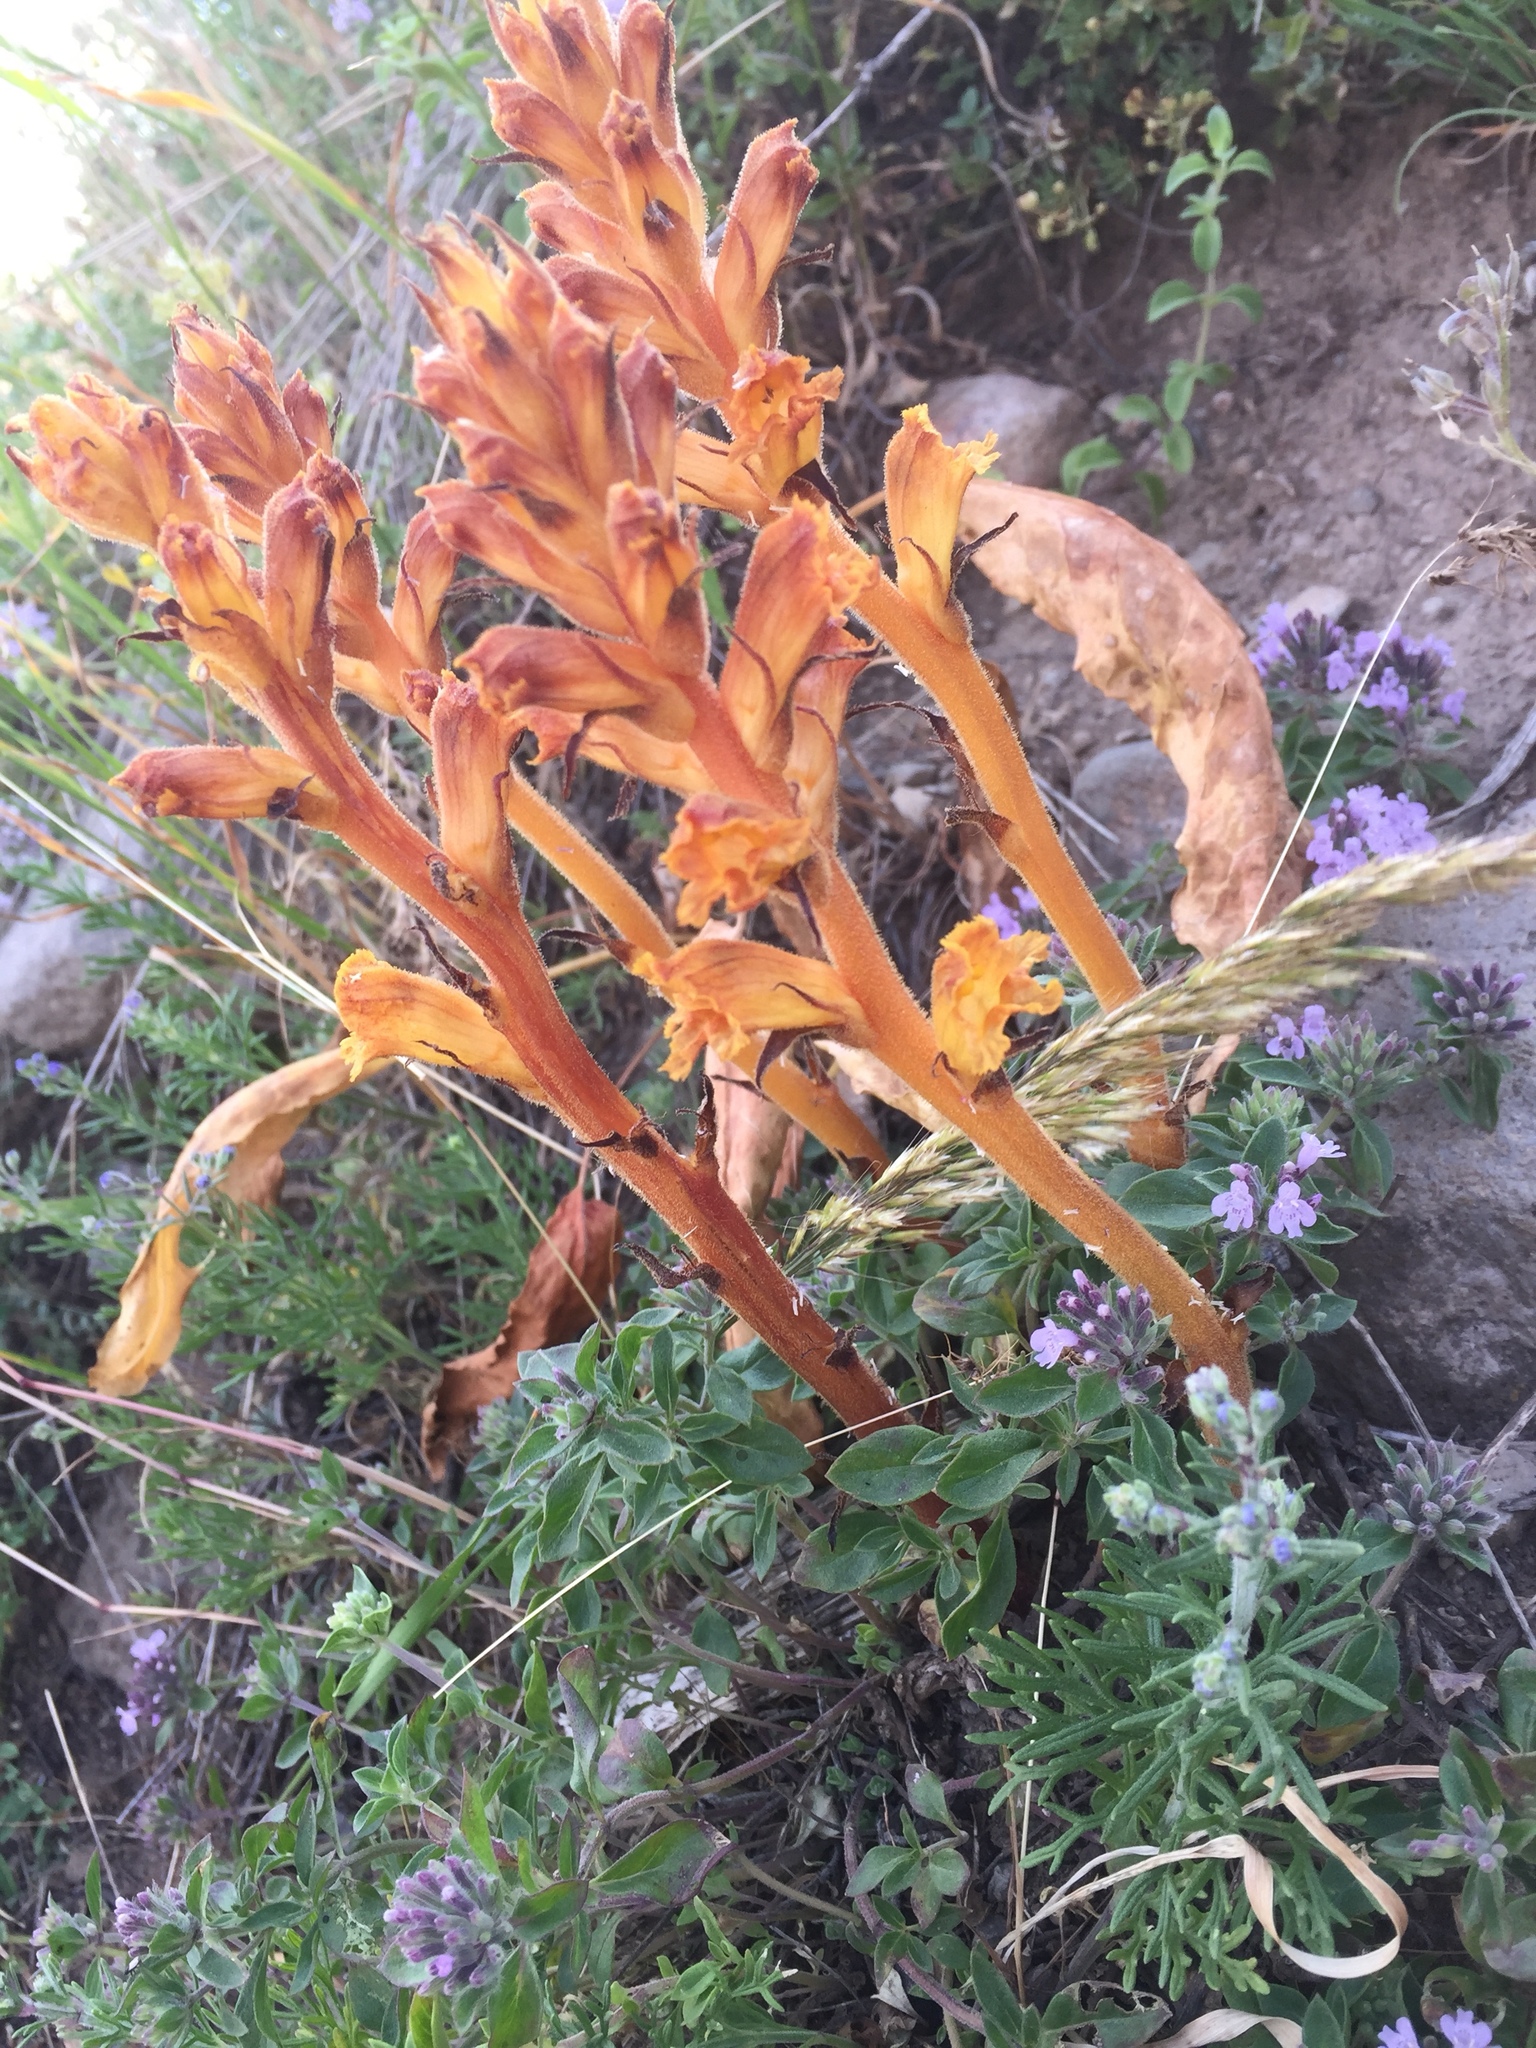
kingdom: Plantae
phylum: Tracheophyta
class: Magnoliopsida
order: Lamiales
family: Orobanchaceae
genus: Orobanche
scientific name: Orobanche alba
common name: Thyme broomrape
